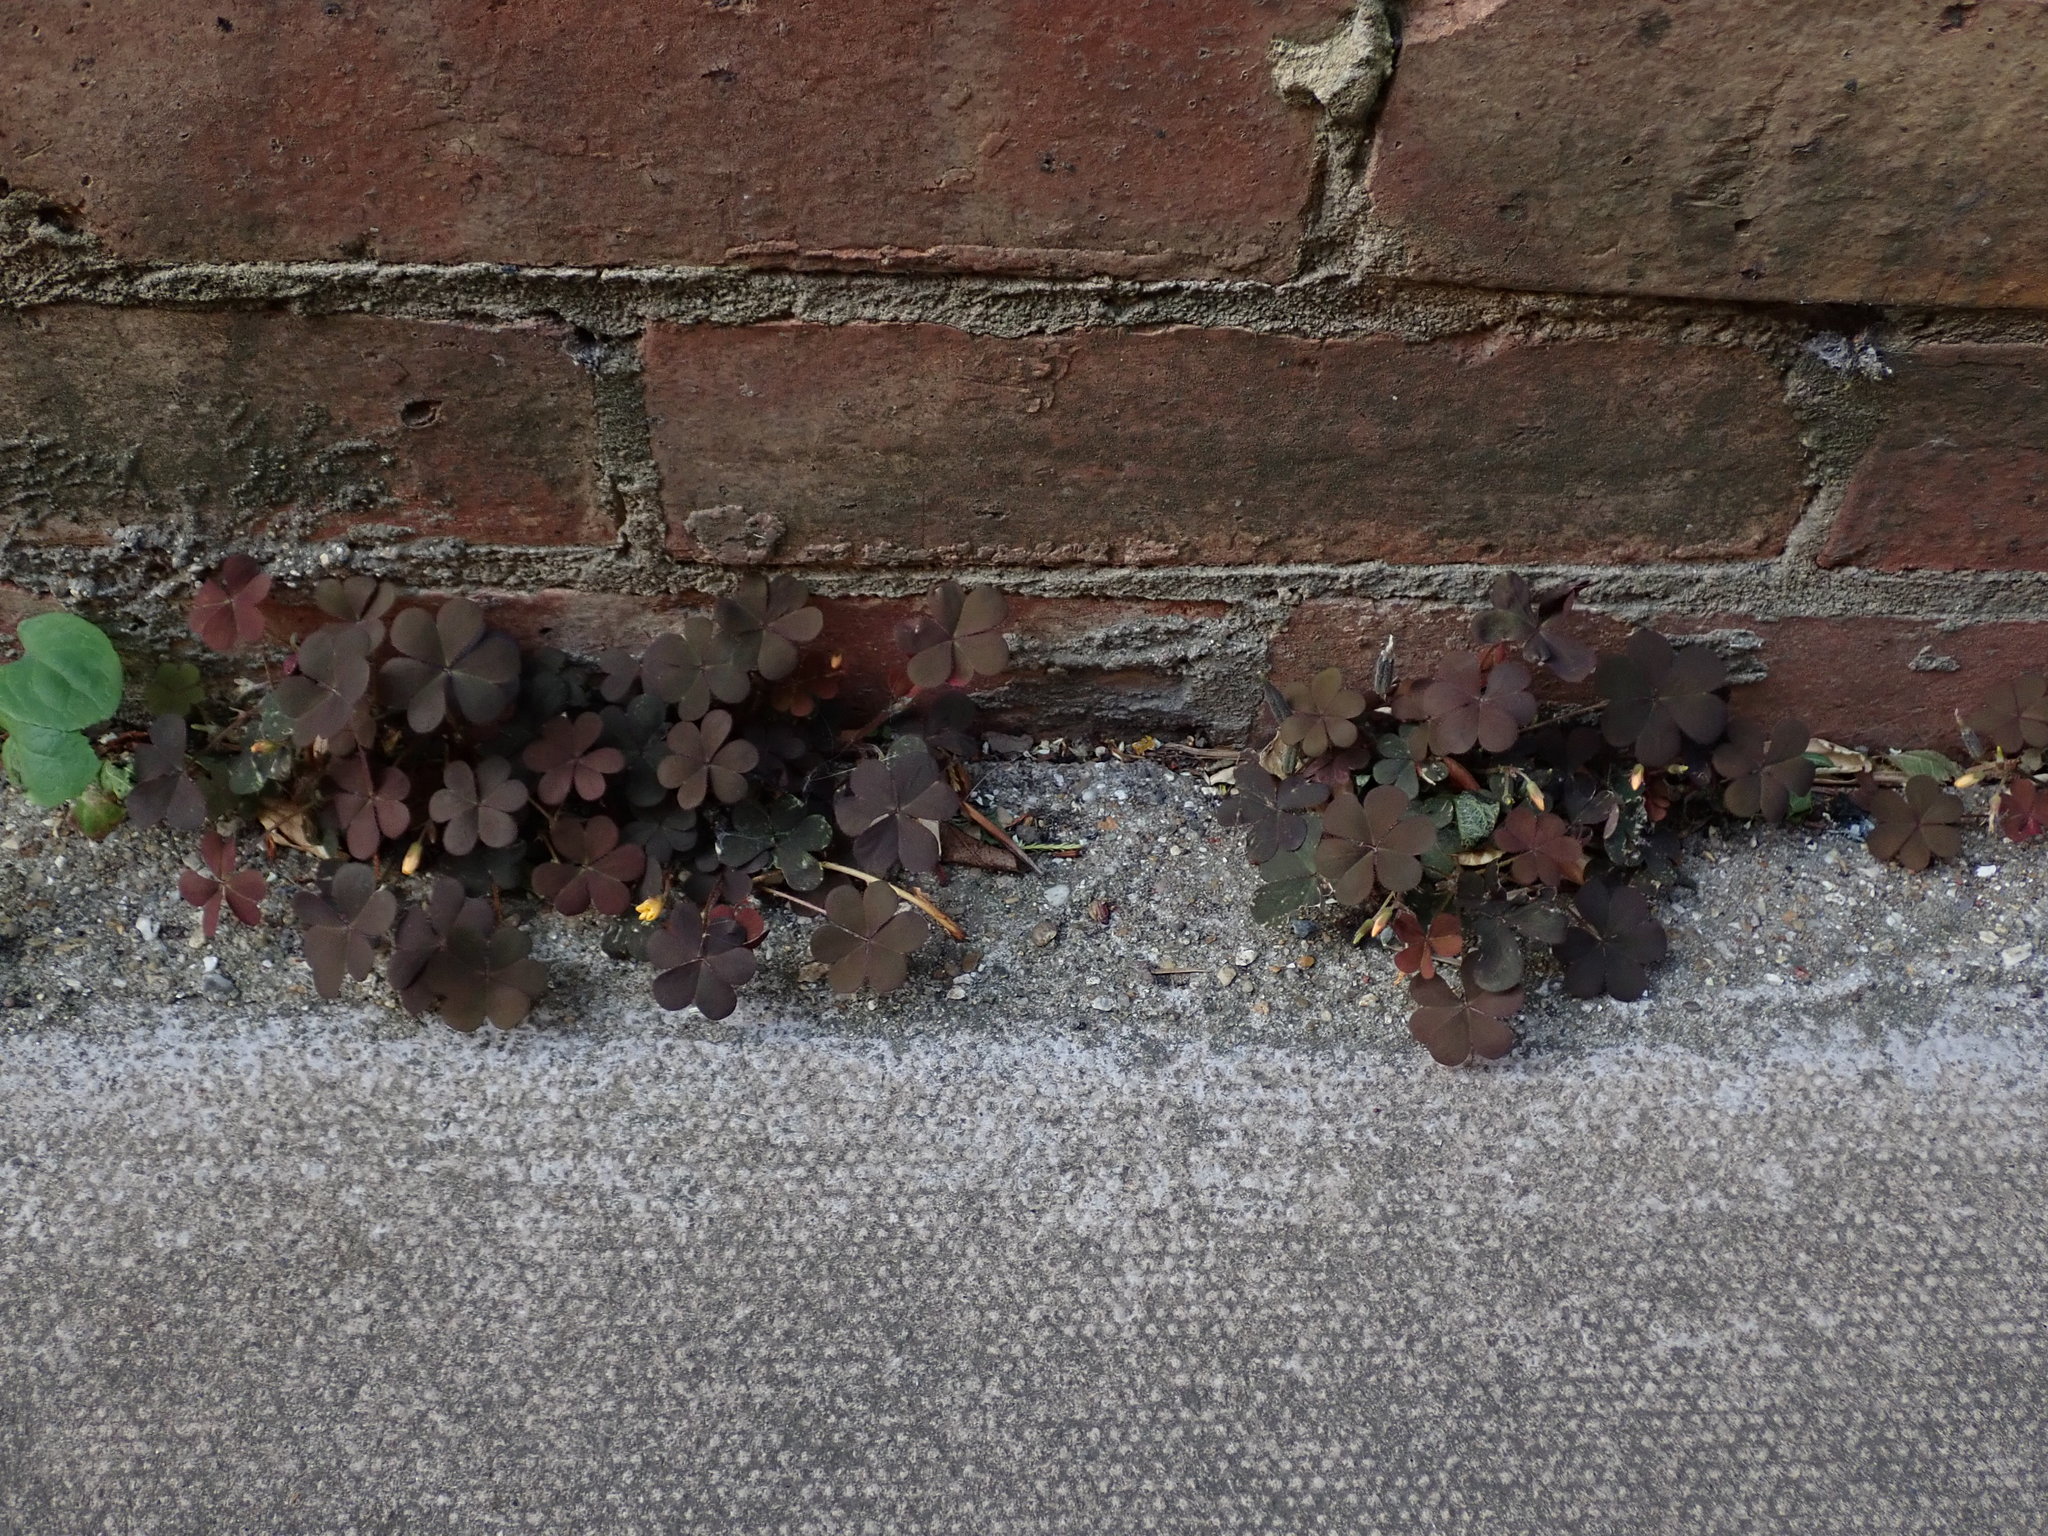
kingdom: Plantae
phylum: Tracheophyta
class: Magnoliopsida
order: Oxalidales
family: Oxalidaceae
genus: Oxalis
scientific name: Oxalis corniculata
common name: Procumbent yellow-sorrel
